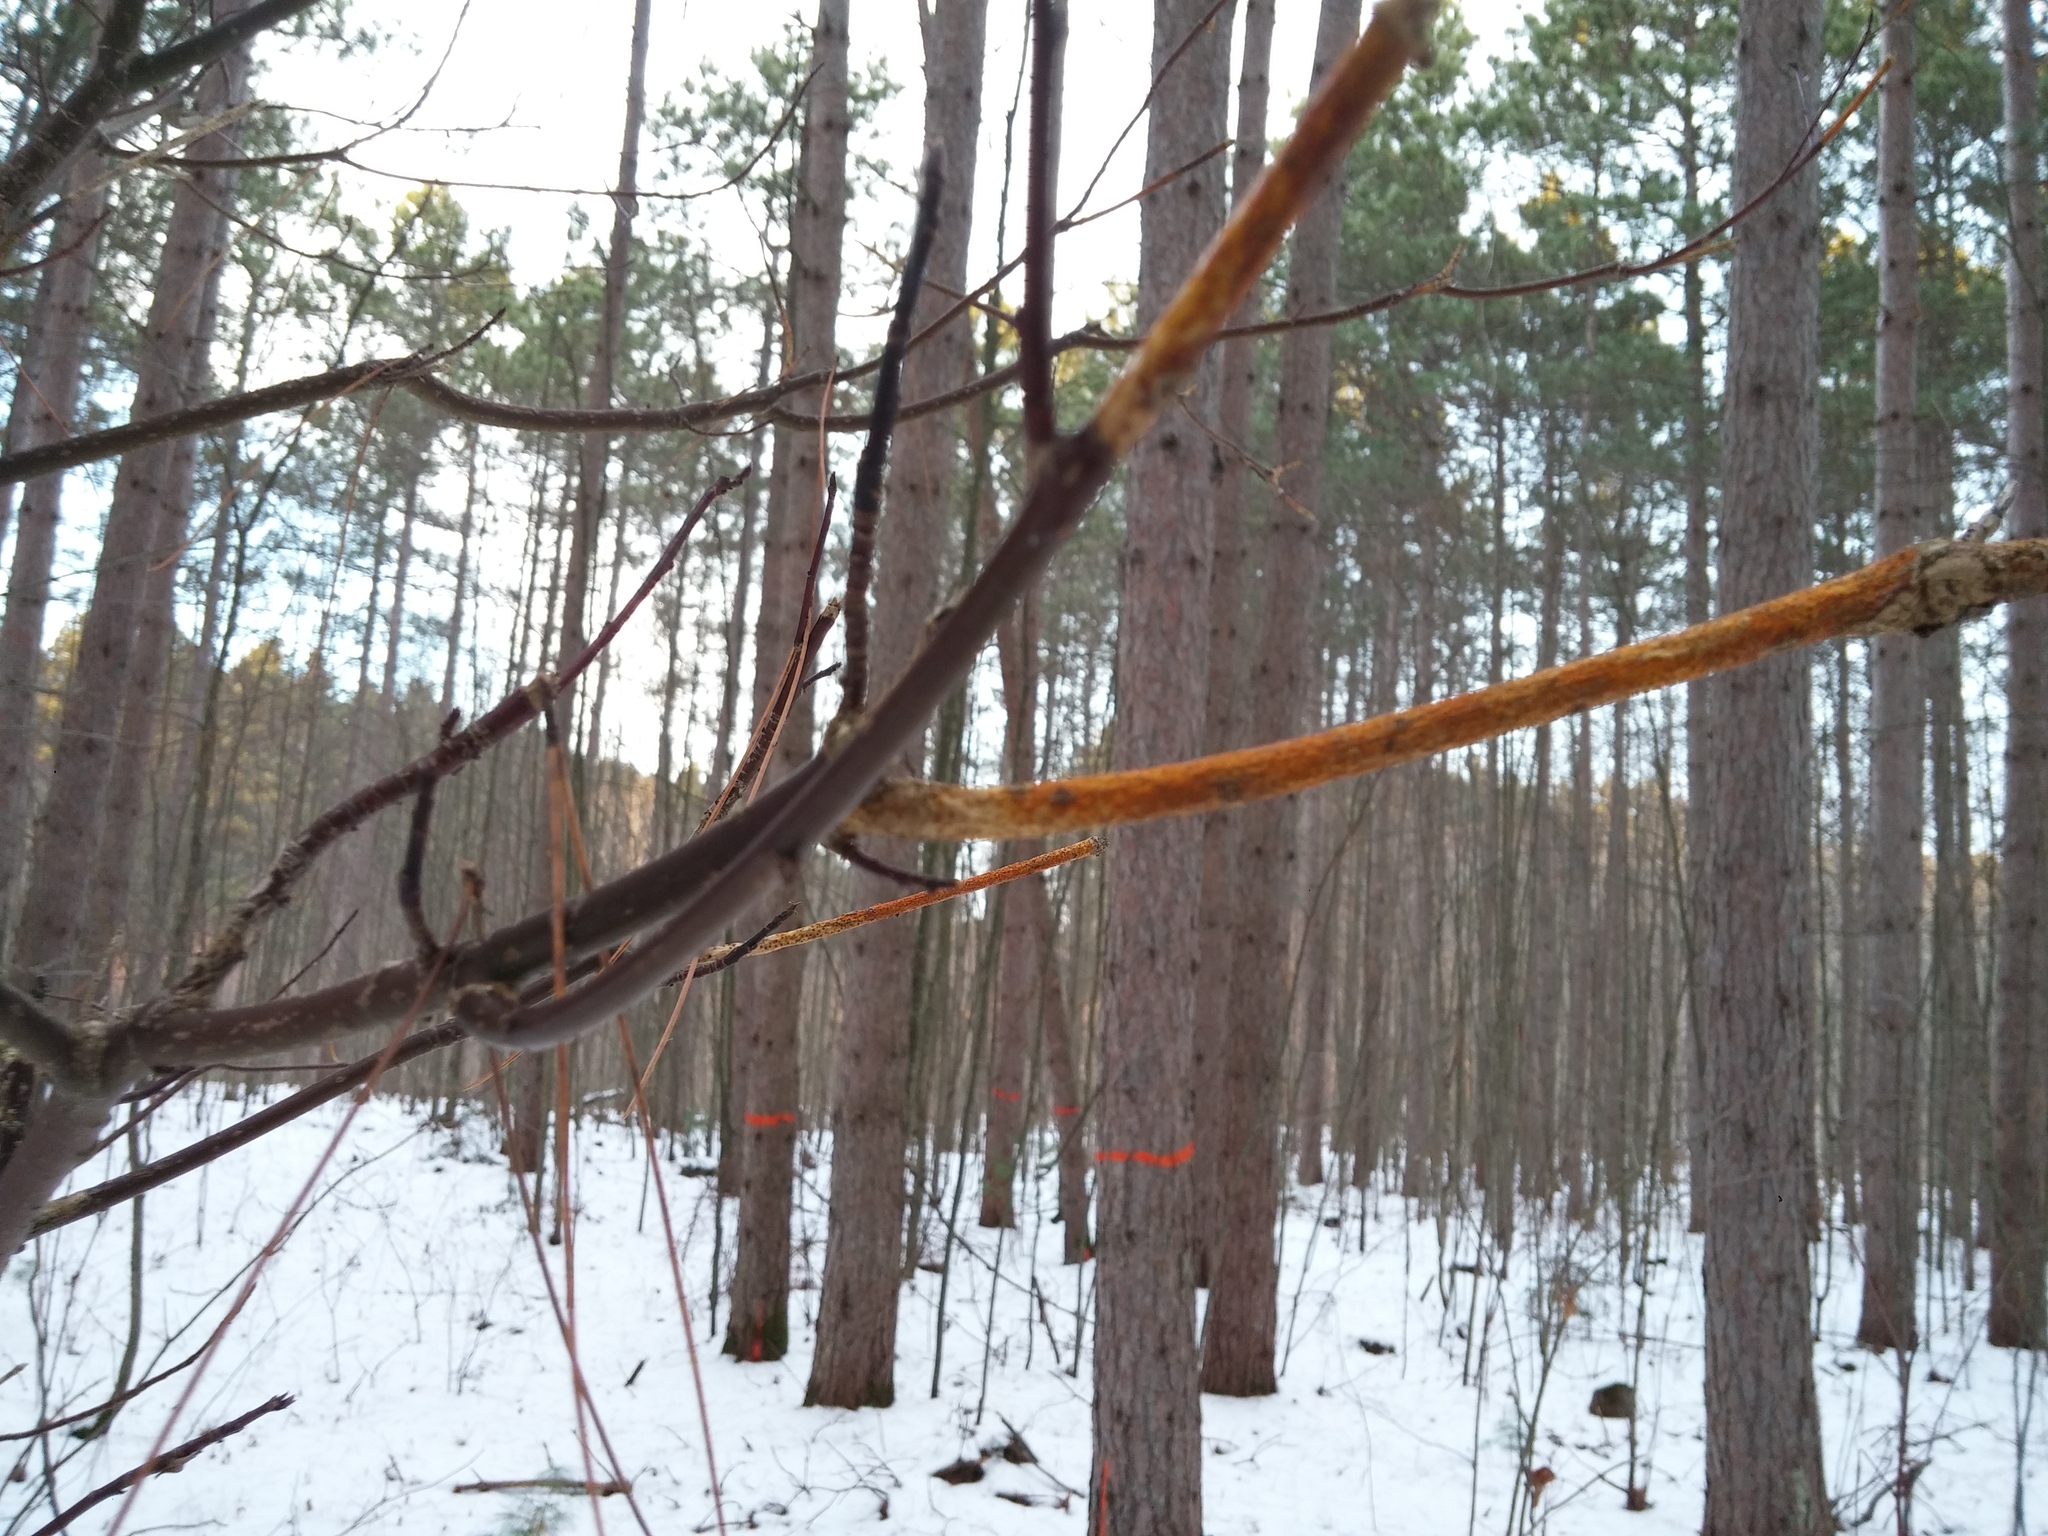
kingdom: Fungi
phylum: Ascomycota
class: Sordariomycetes
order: Diaporthales
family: Cryphonectriaceae
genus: Aurantioporthe
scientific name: Aurantioporthe corni
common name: Dogwood golden canker
